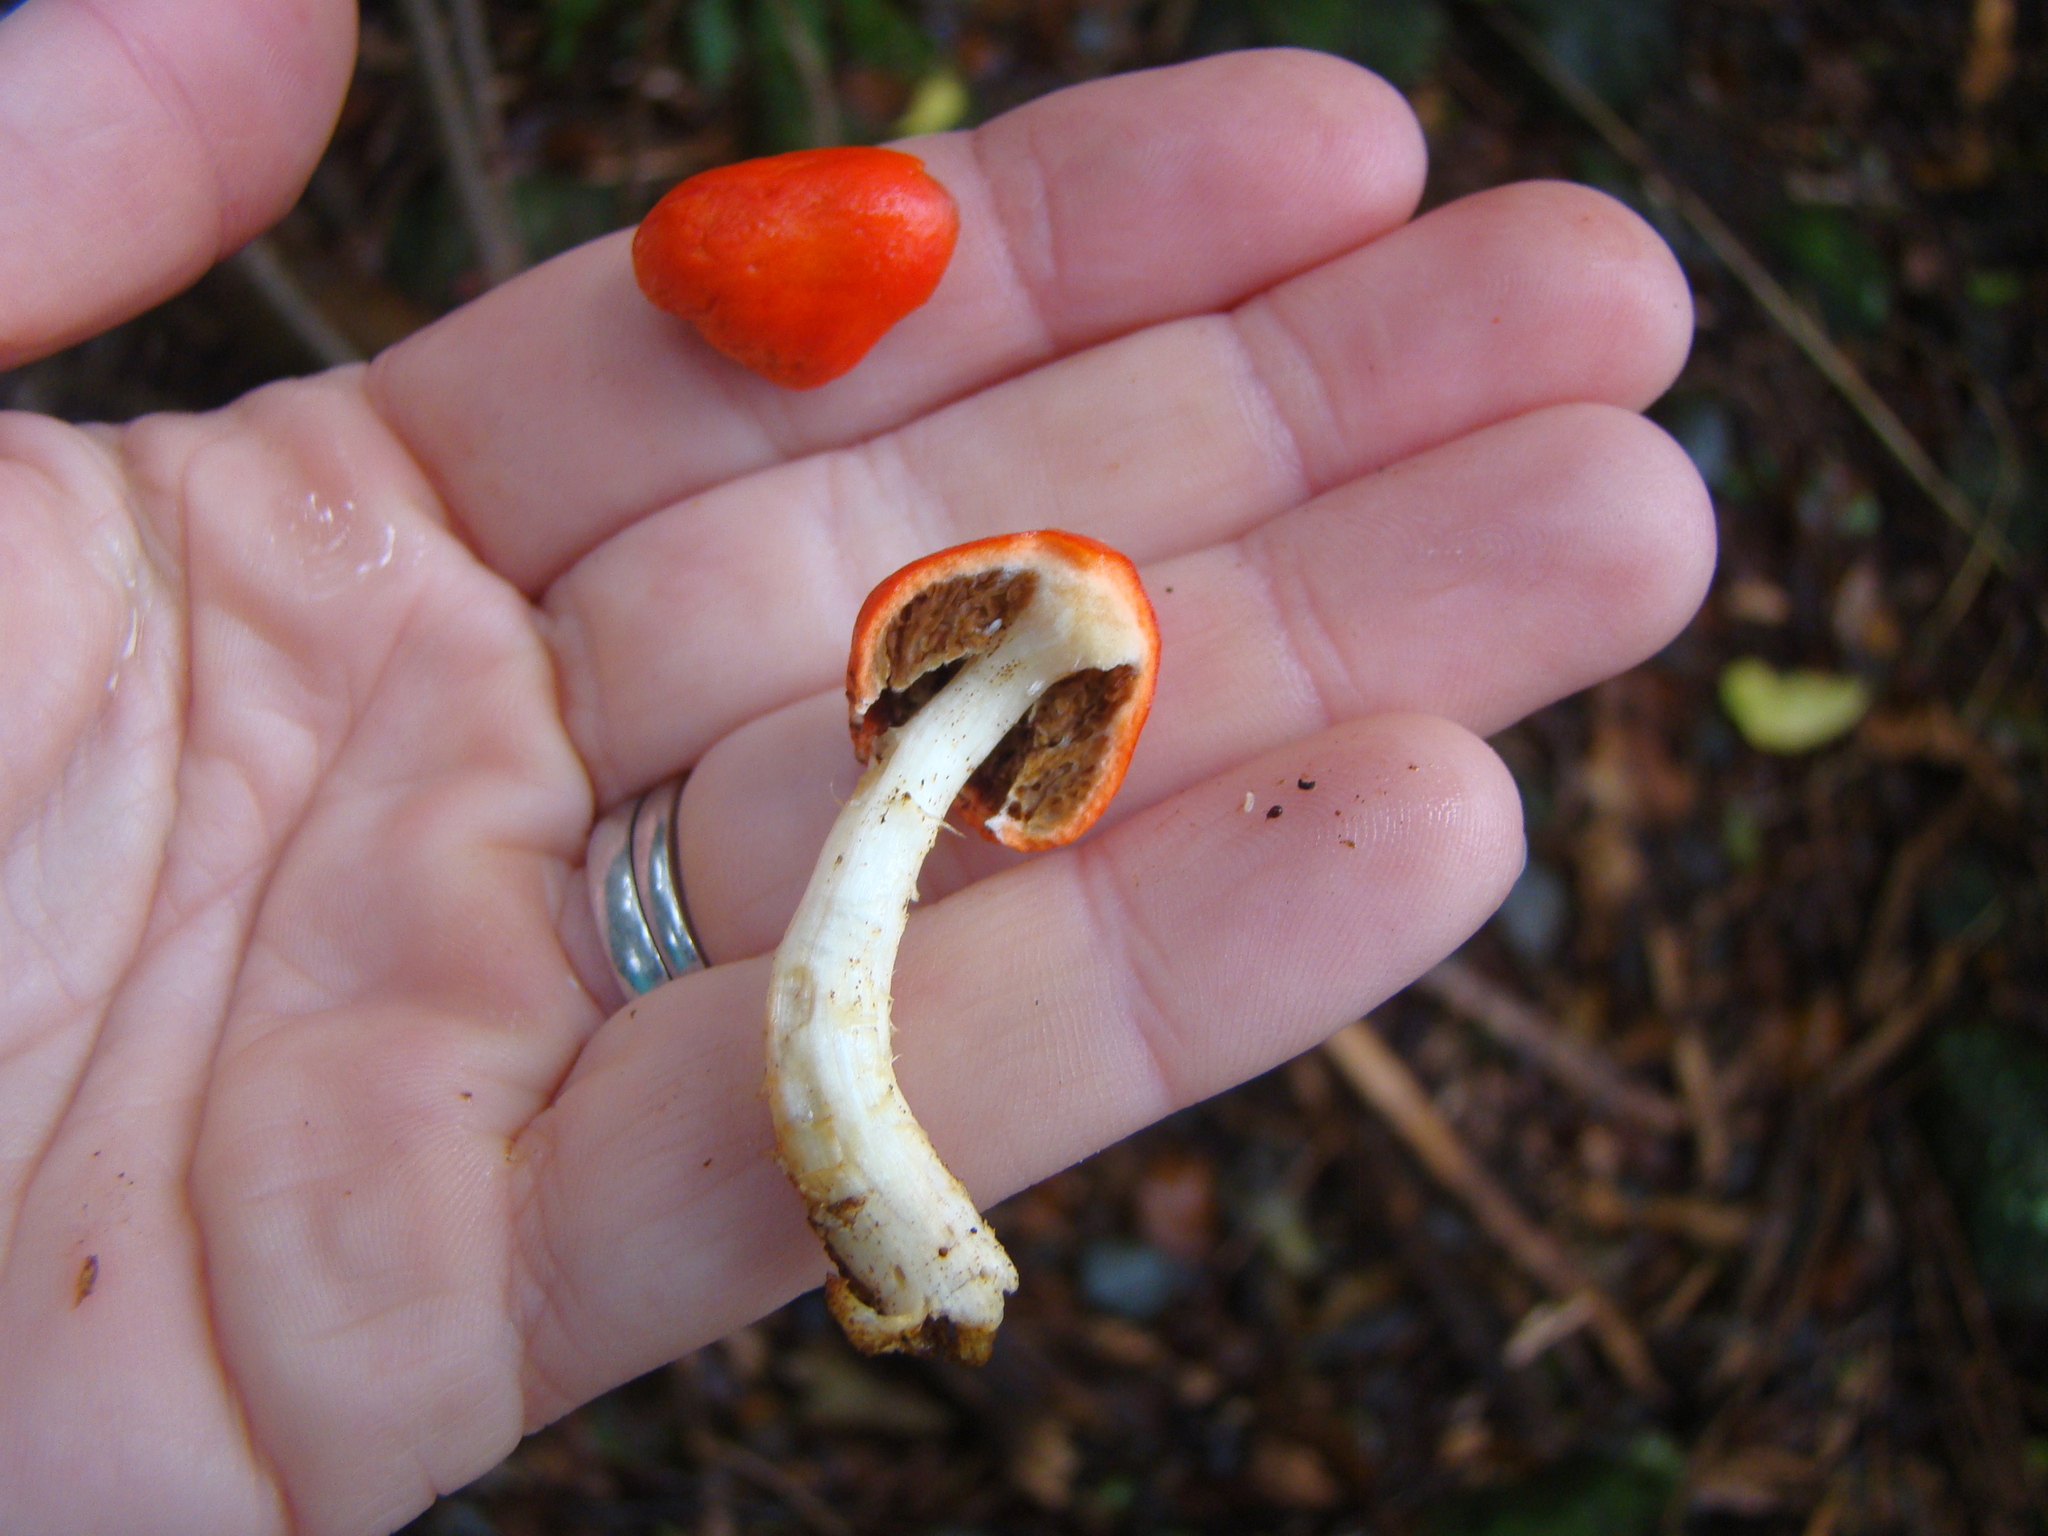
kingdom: Fungi
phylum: Basidiomycota
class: Agaricomycetes
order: Agaricales
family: Strophariaceae
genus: Leratiomyces
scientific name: Leratiomyces erythrocephalus
